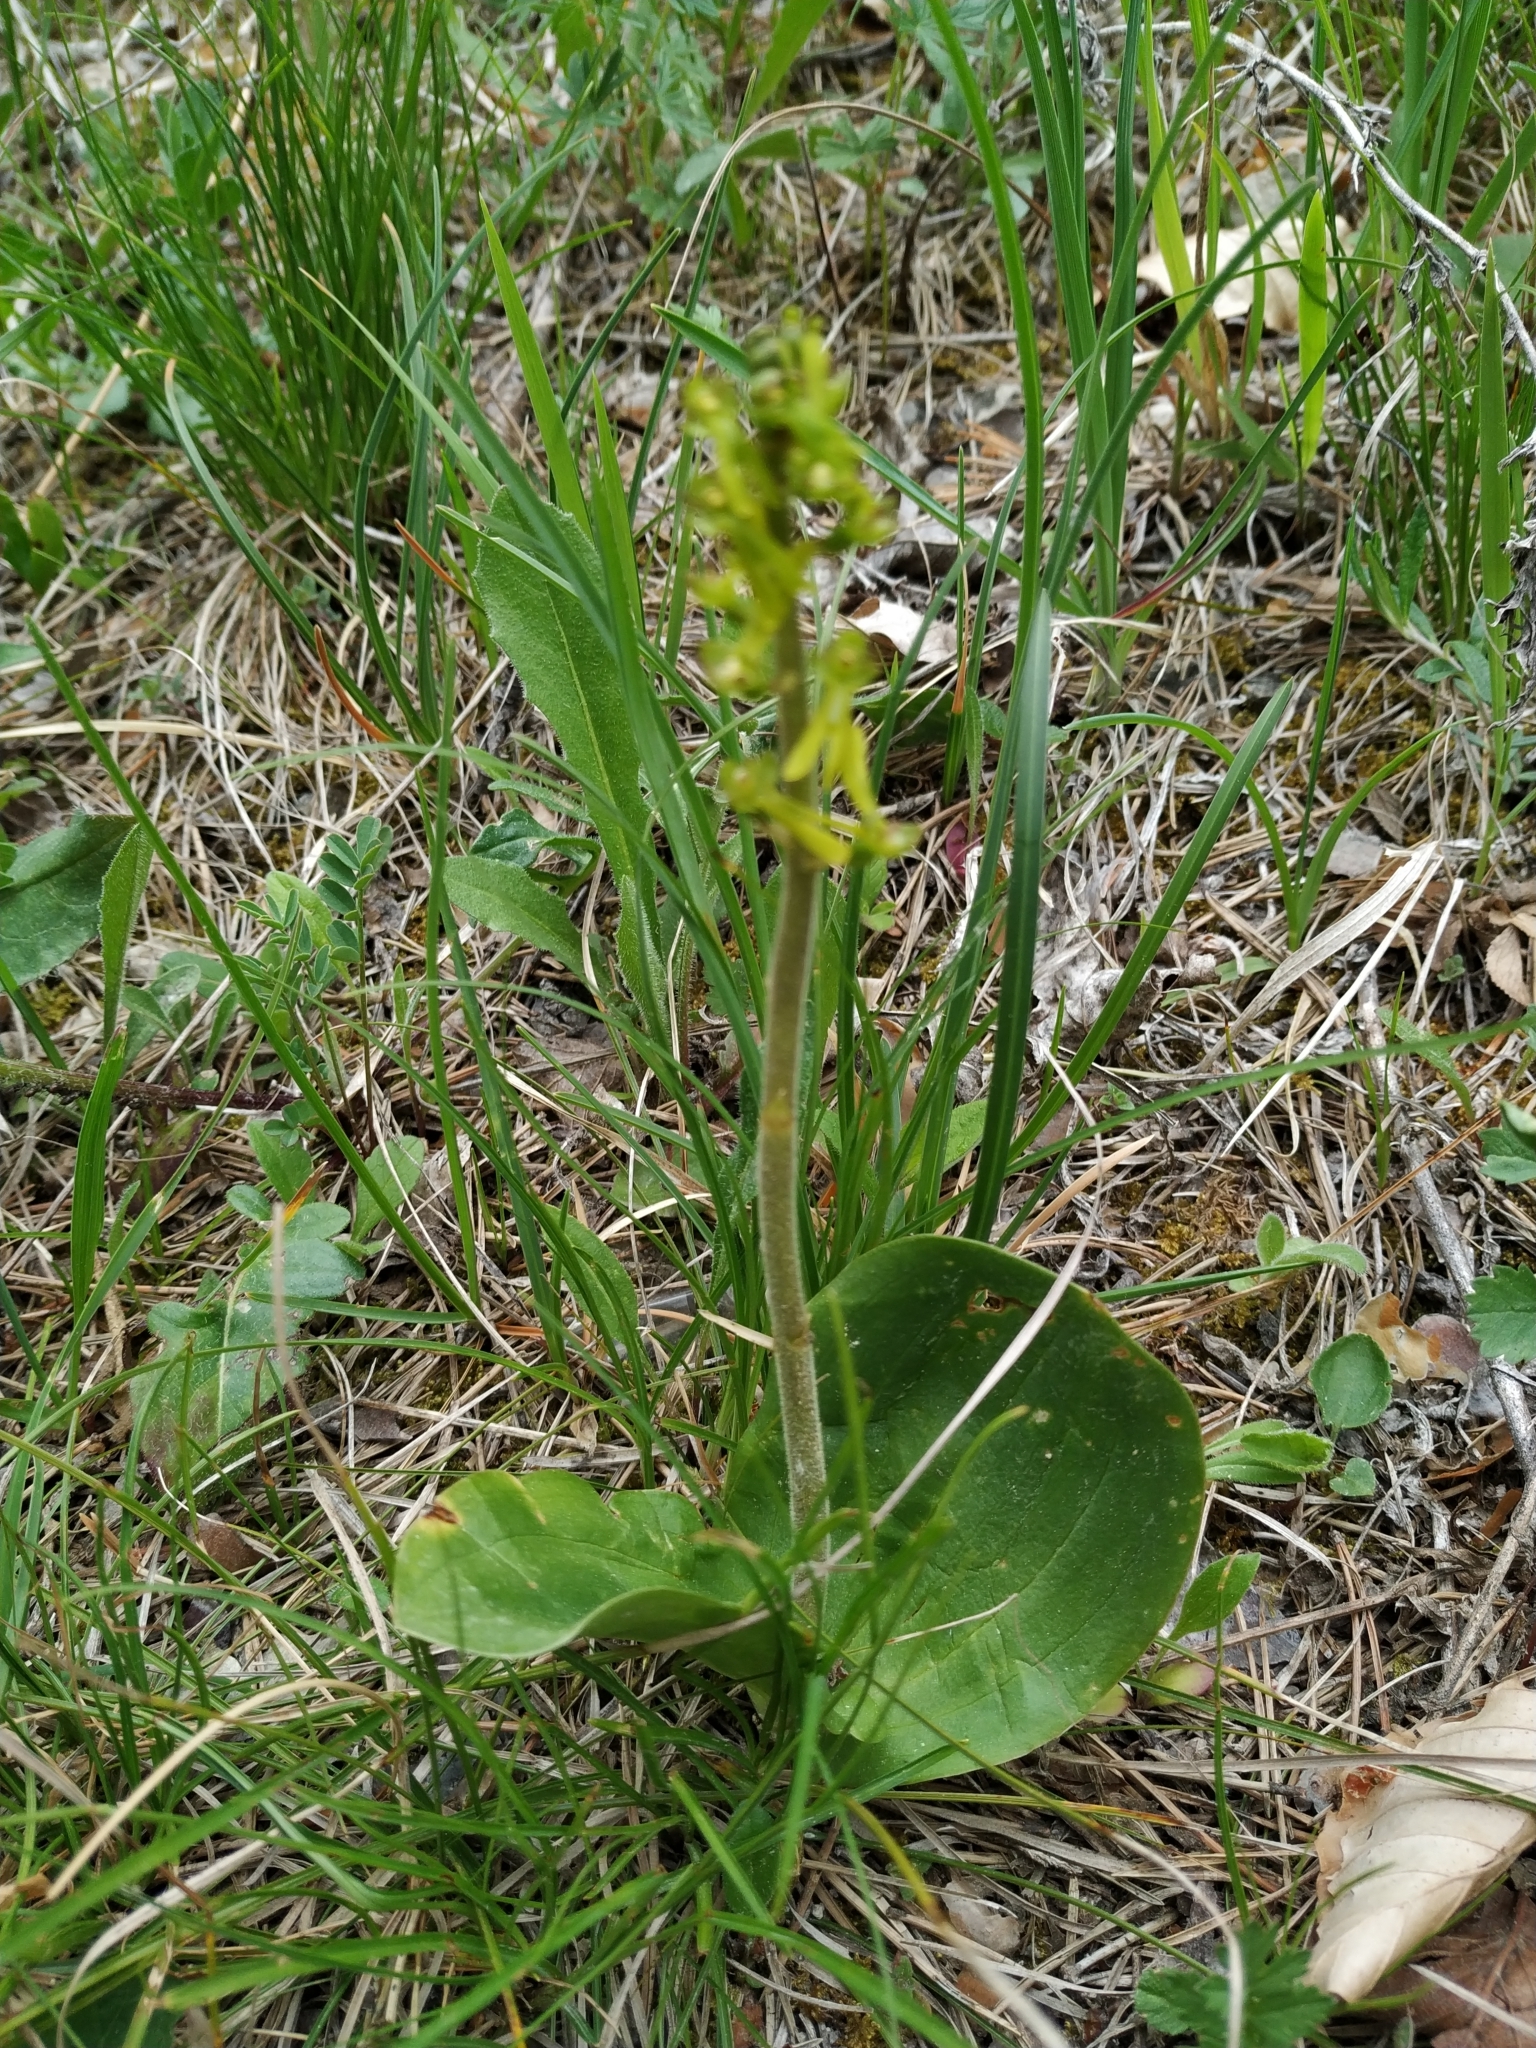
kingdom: Plantae
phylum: Tracheophyta
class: Liliopsida
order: Asparagales
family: Orchidaceae
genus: Neottia
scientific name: Neottia ovata
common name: Common twayblade
